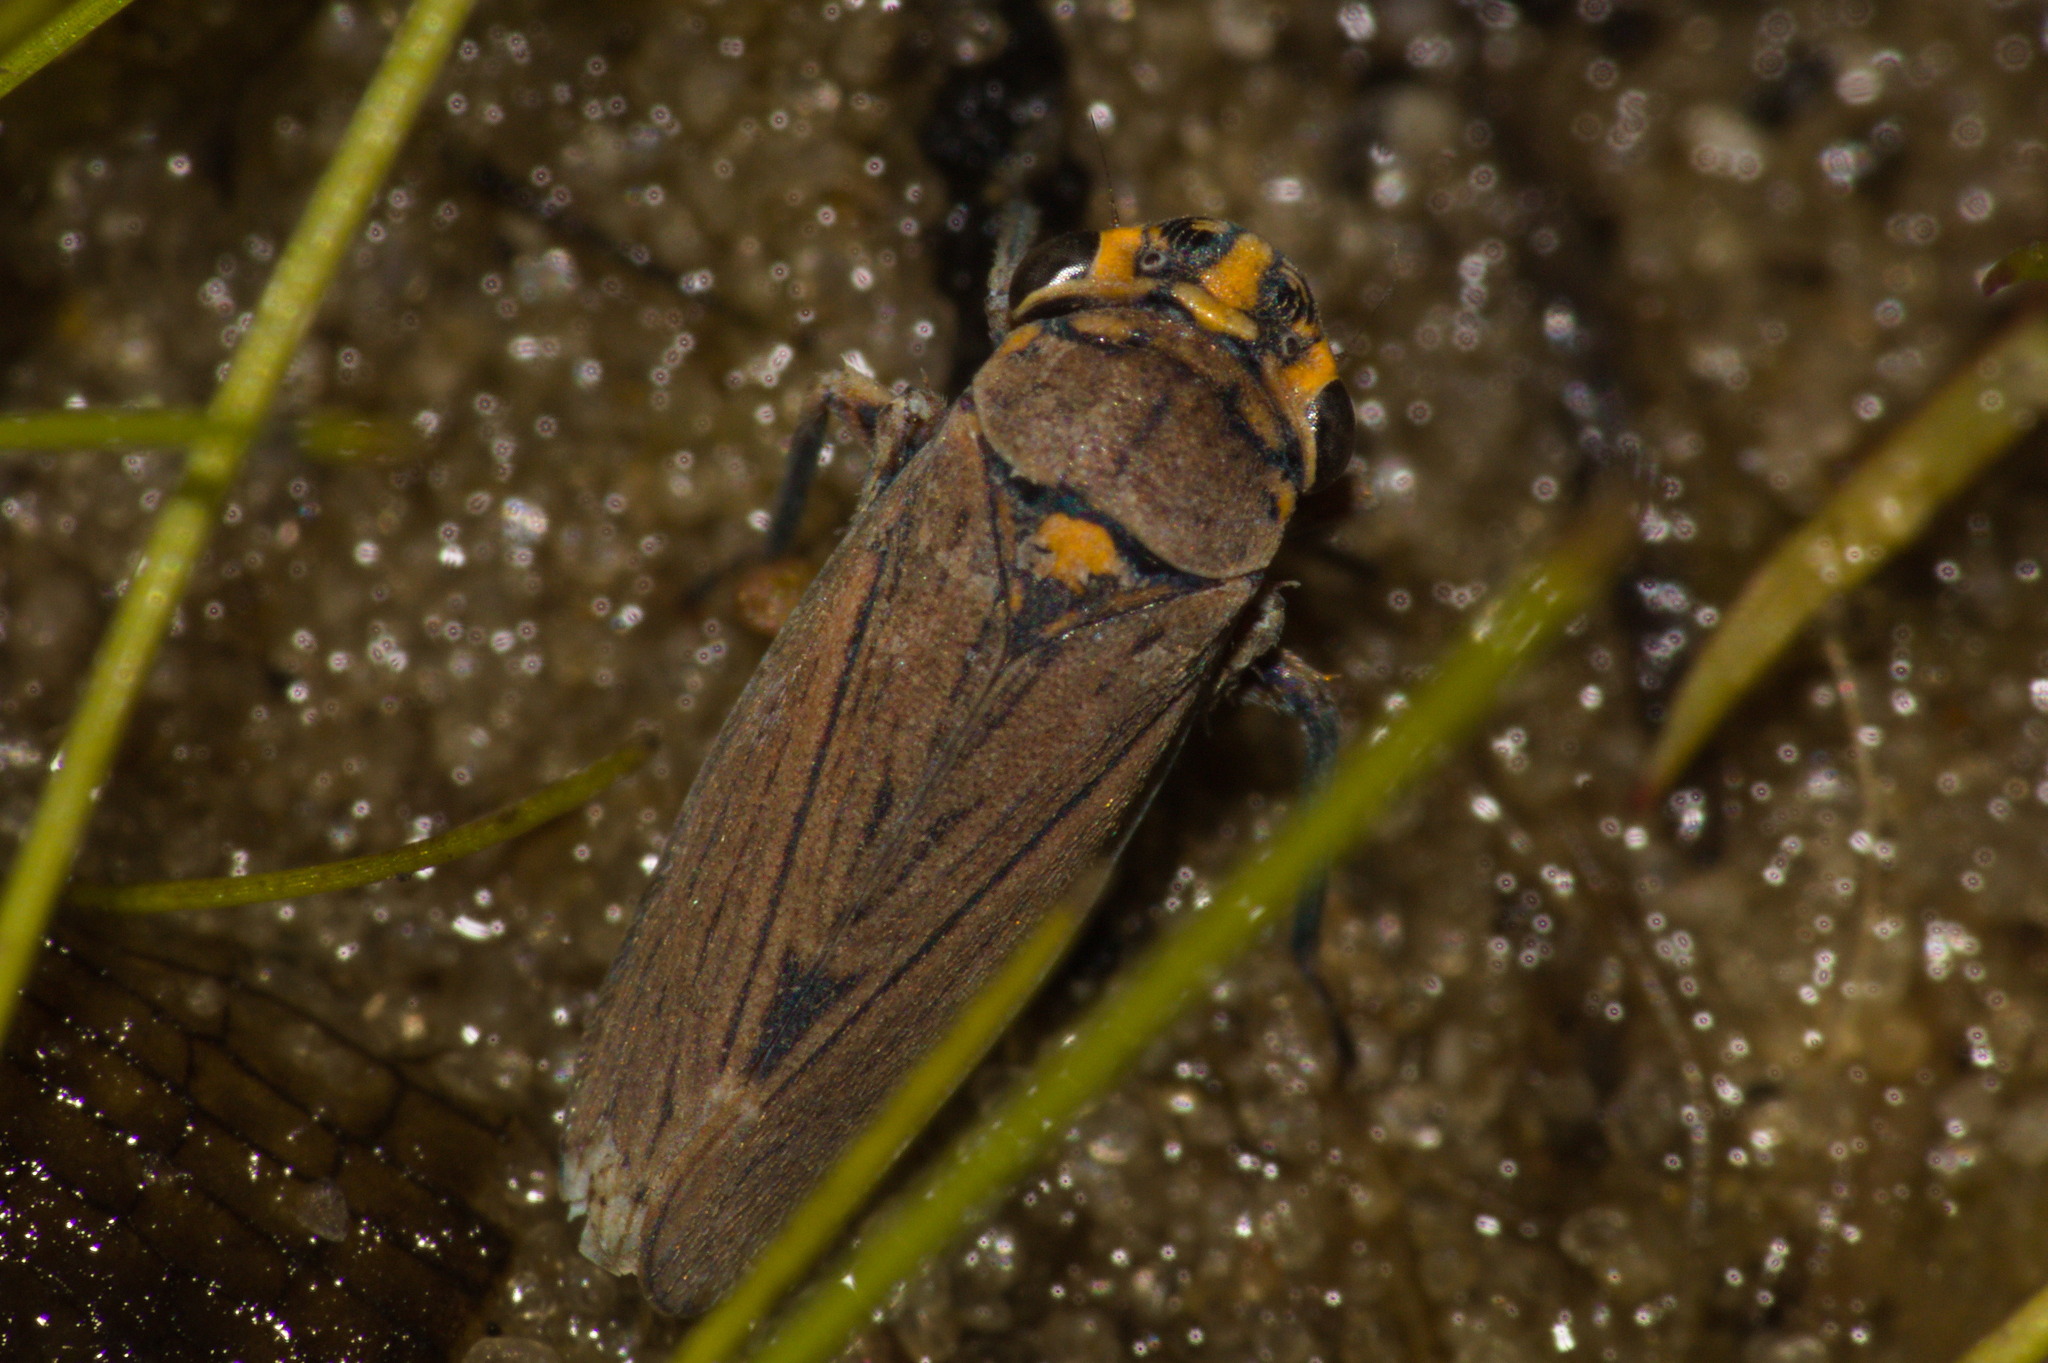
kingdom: Animalia
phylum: Arthropoda
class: Insecta
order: Hemiptera
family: Cicadellidae
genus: Dechacona
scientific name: Dechacona missionum
